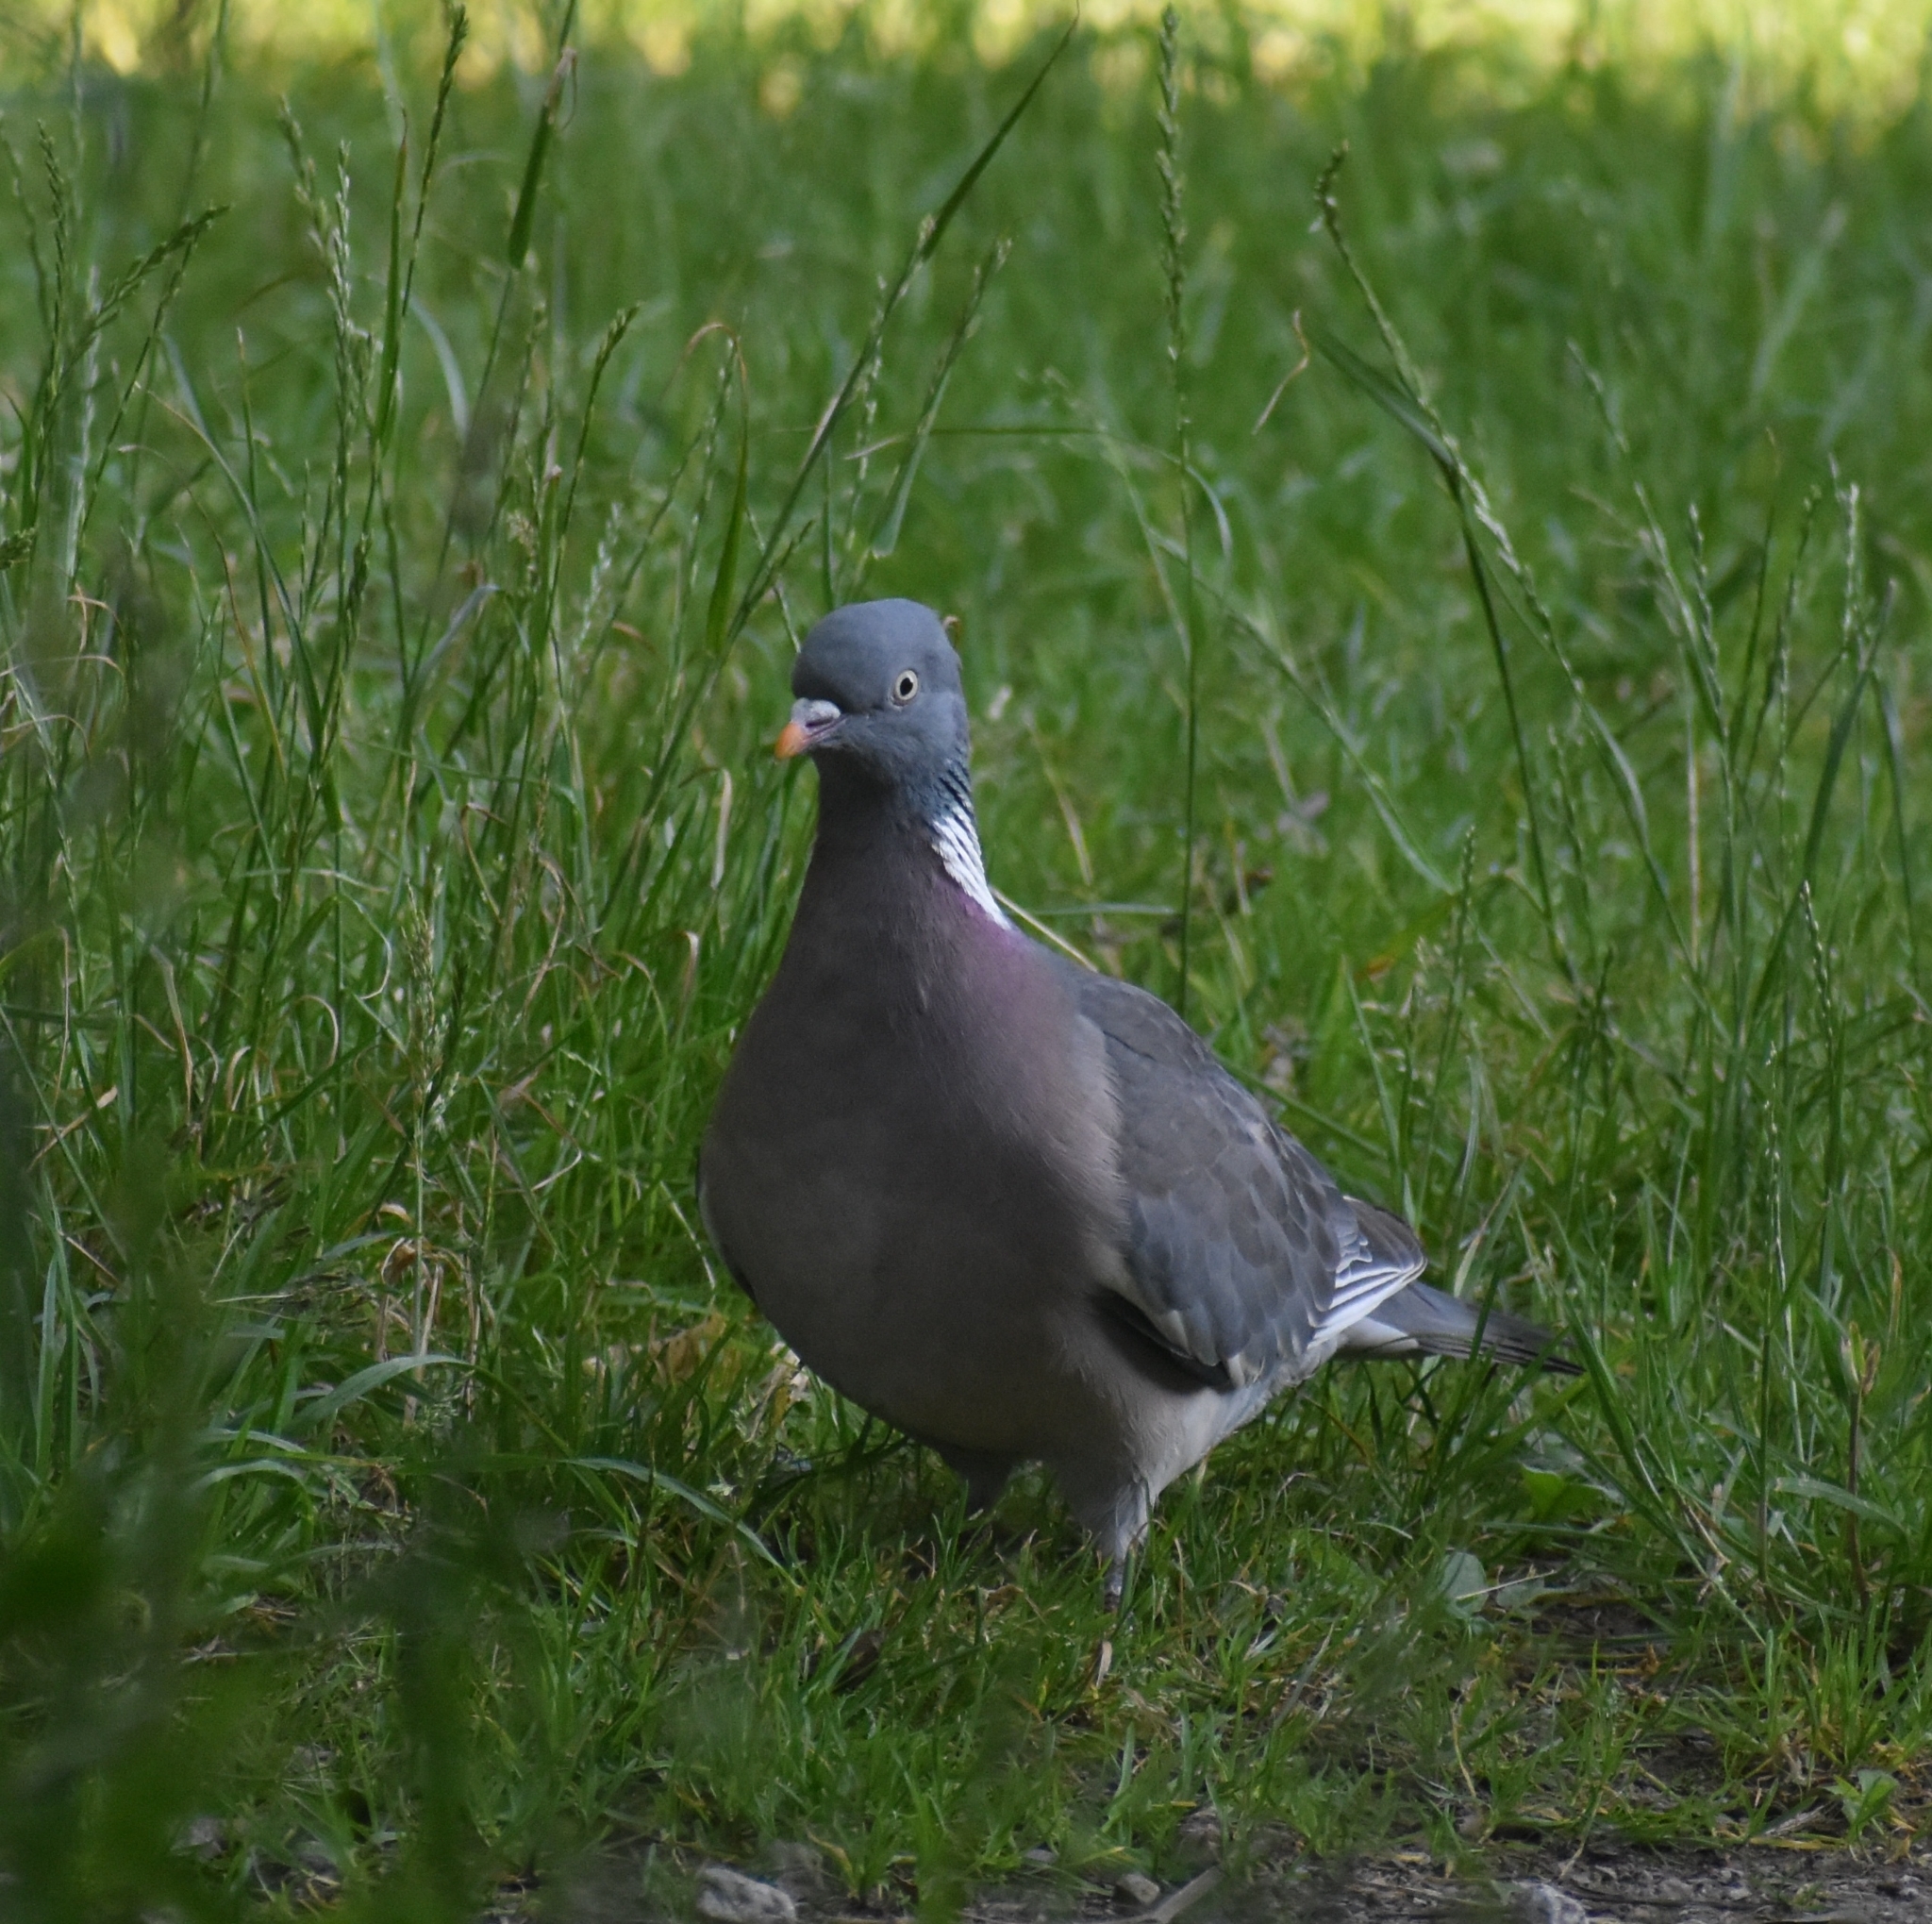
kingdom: Animalia
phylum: Chordata
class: Aves
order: Columbiformes
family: Columbidae
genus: Columba
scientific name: Columba palumbus
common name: Common wood pigeon
